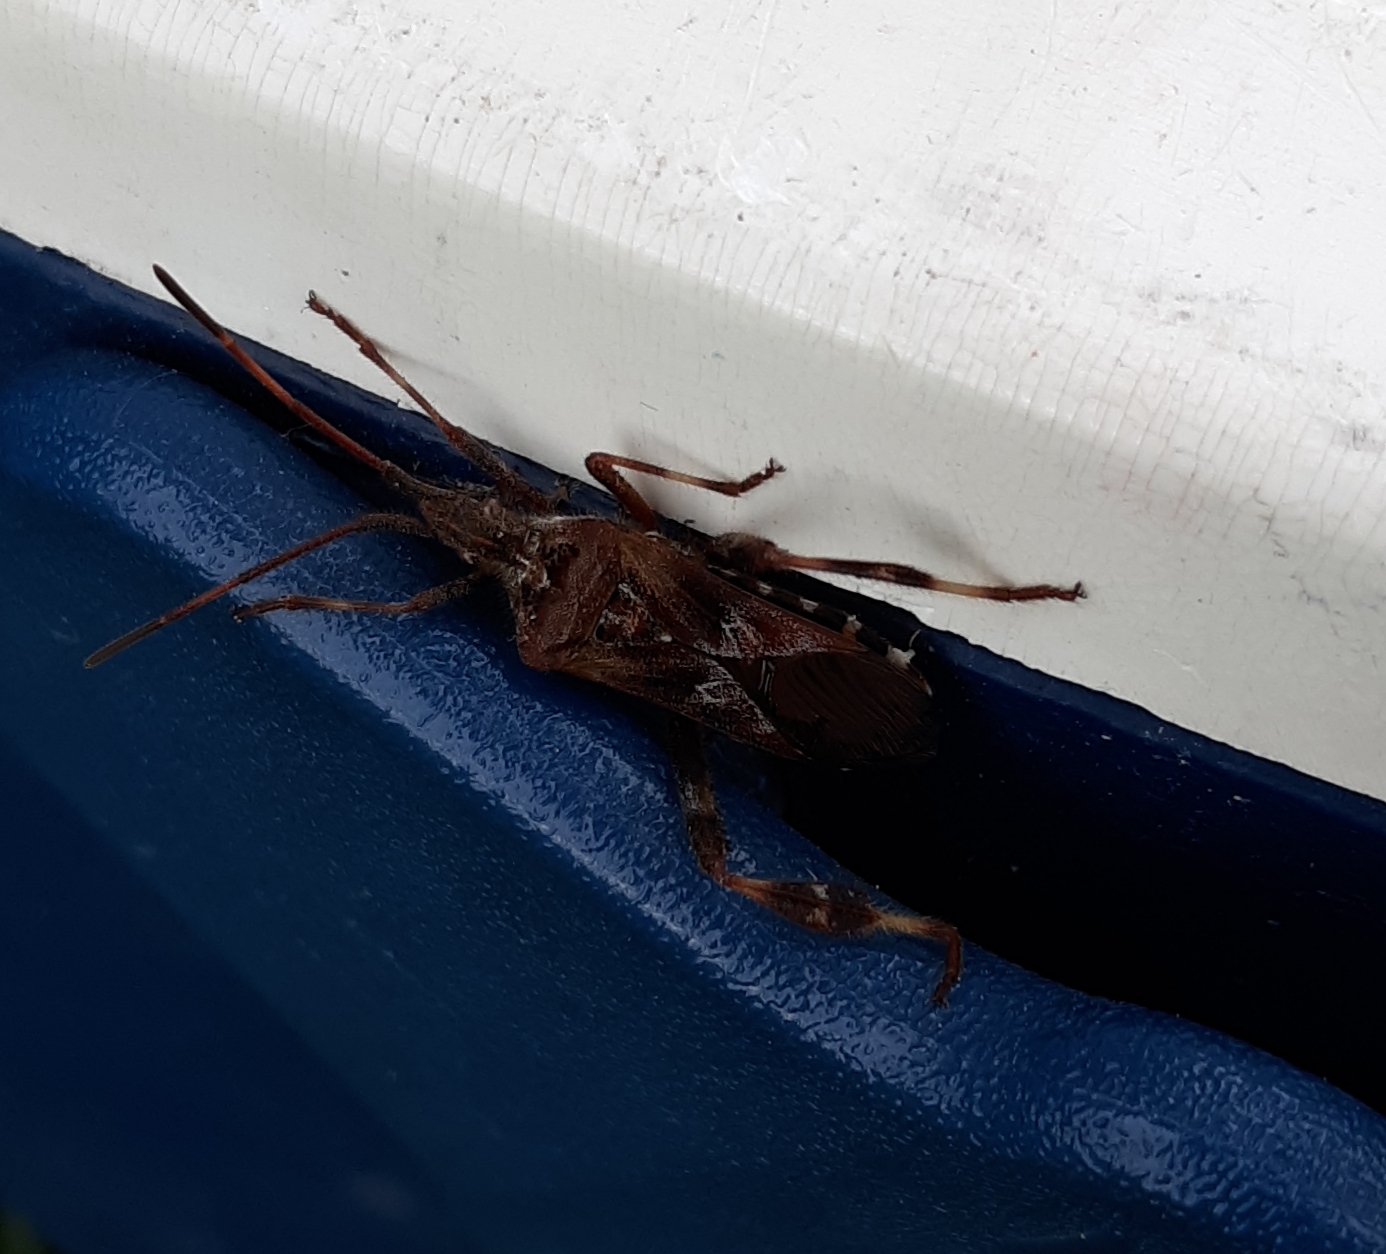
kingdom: Animalia
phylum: Arthropoda
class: Insecta
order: Hemiptera
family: Coreidae
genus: Leptoglossus
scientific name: Leptoglossus occidentalis
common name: Western conifer-seed bug
